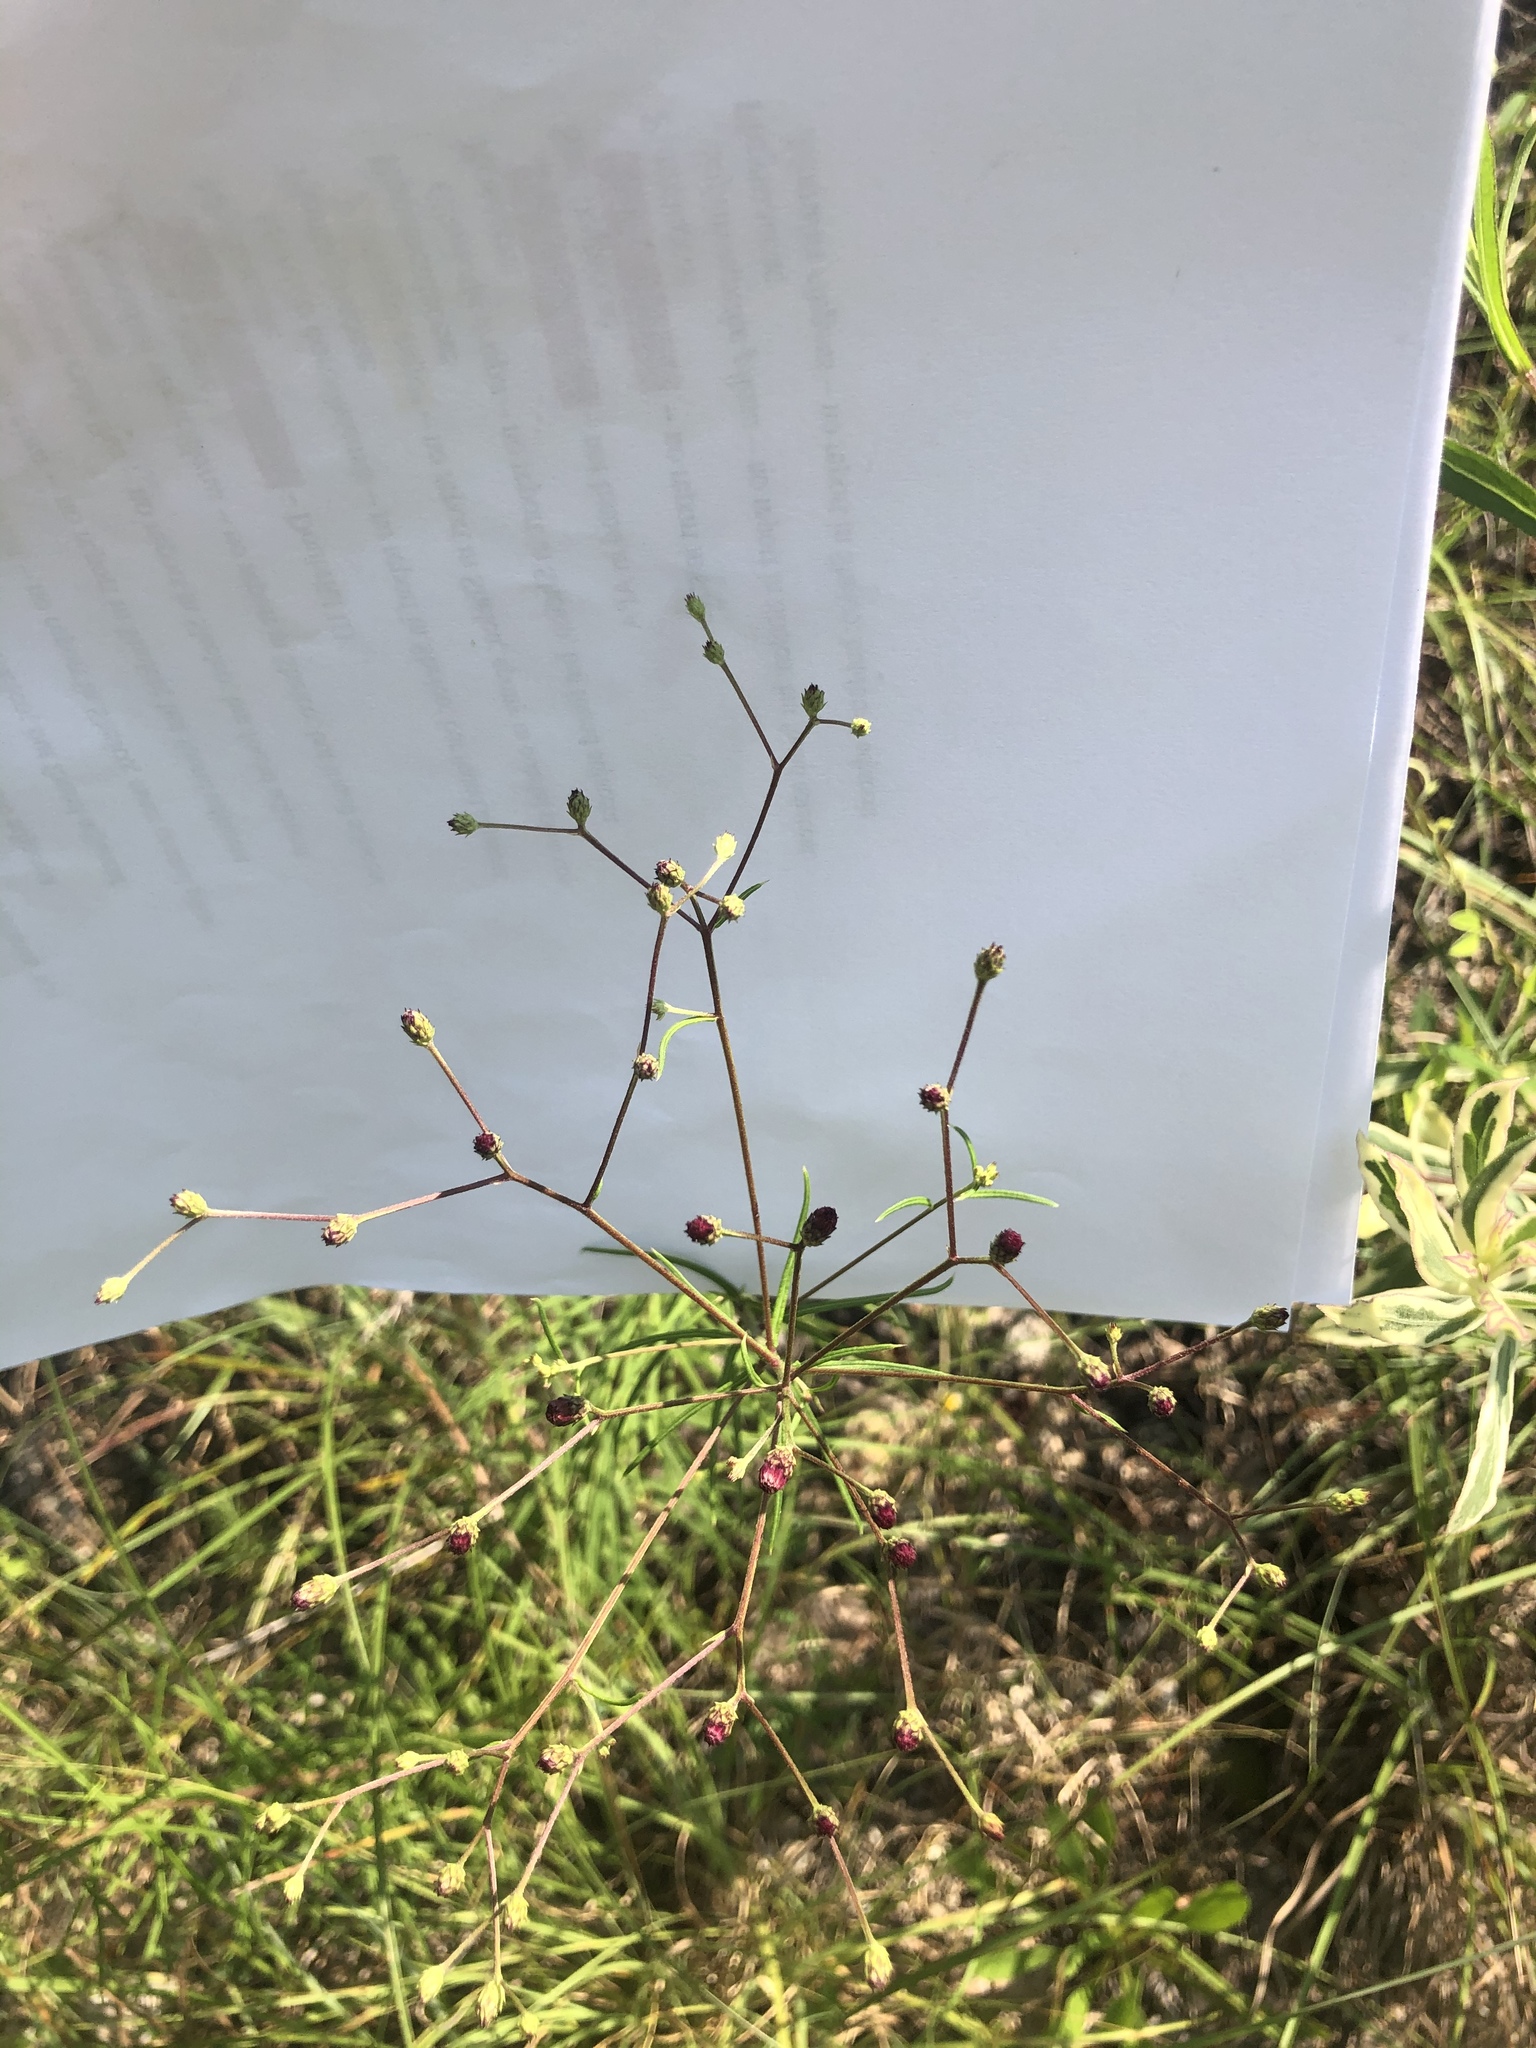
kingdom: Plantae
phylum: Tracheophyta
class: Magnoliopsida
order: Asterales
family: Asteraceae
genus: Vernonia
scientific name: Vernonia angustifolia
